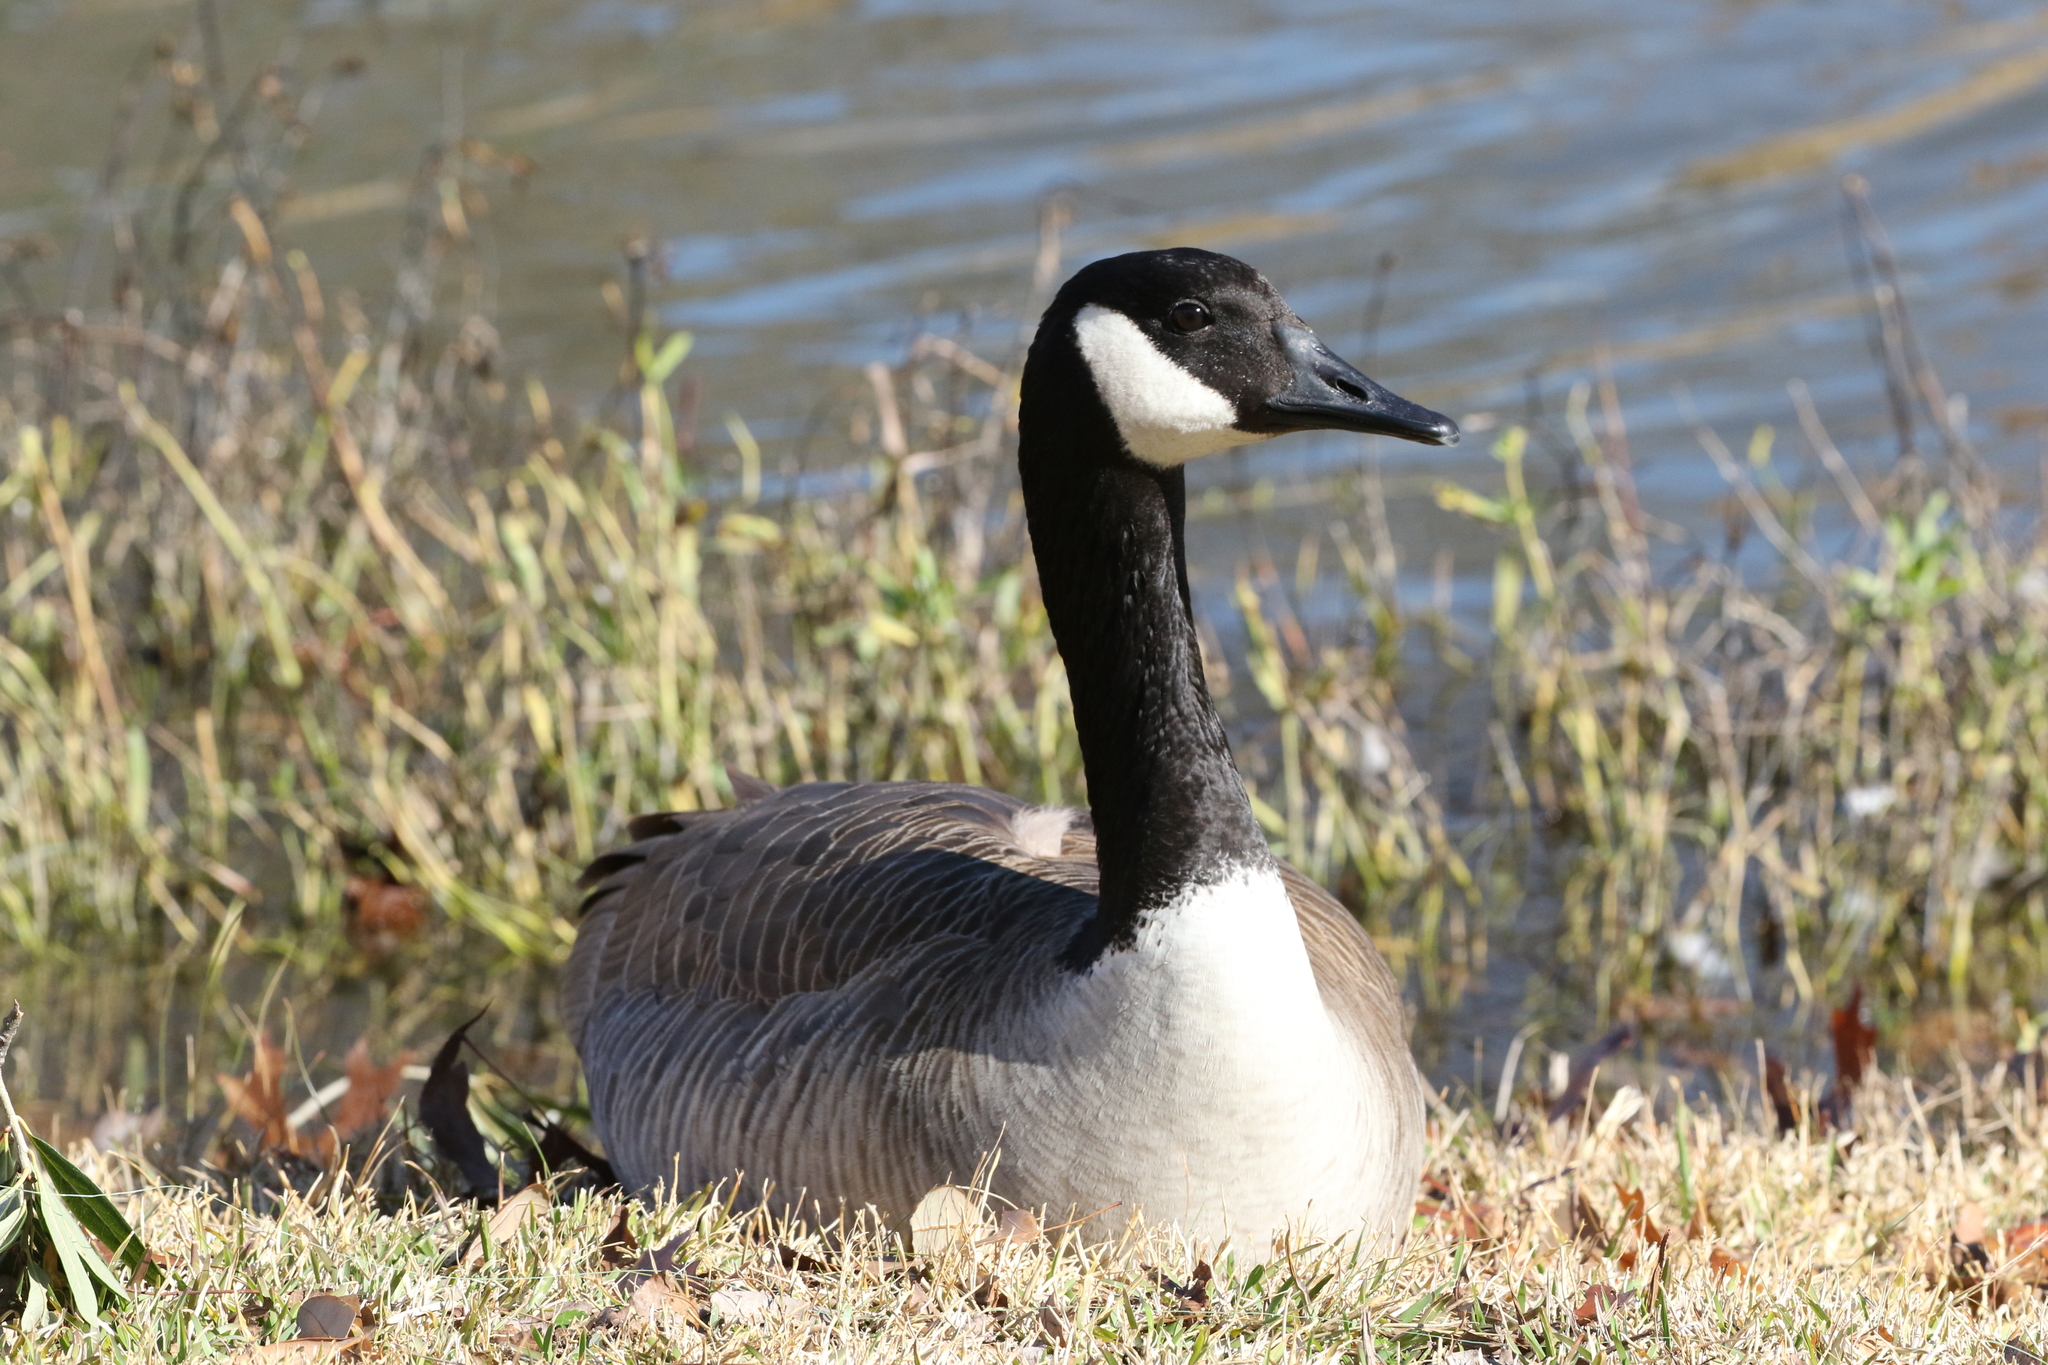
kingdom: Animalia
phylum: Chordata
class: Aves
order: Anseriformes
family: Anatidae
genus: Branta
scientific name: Branta canadensis
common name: Canada goose
